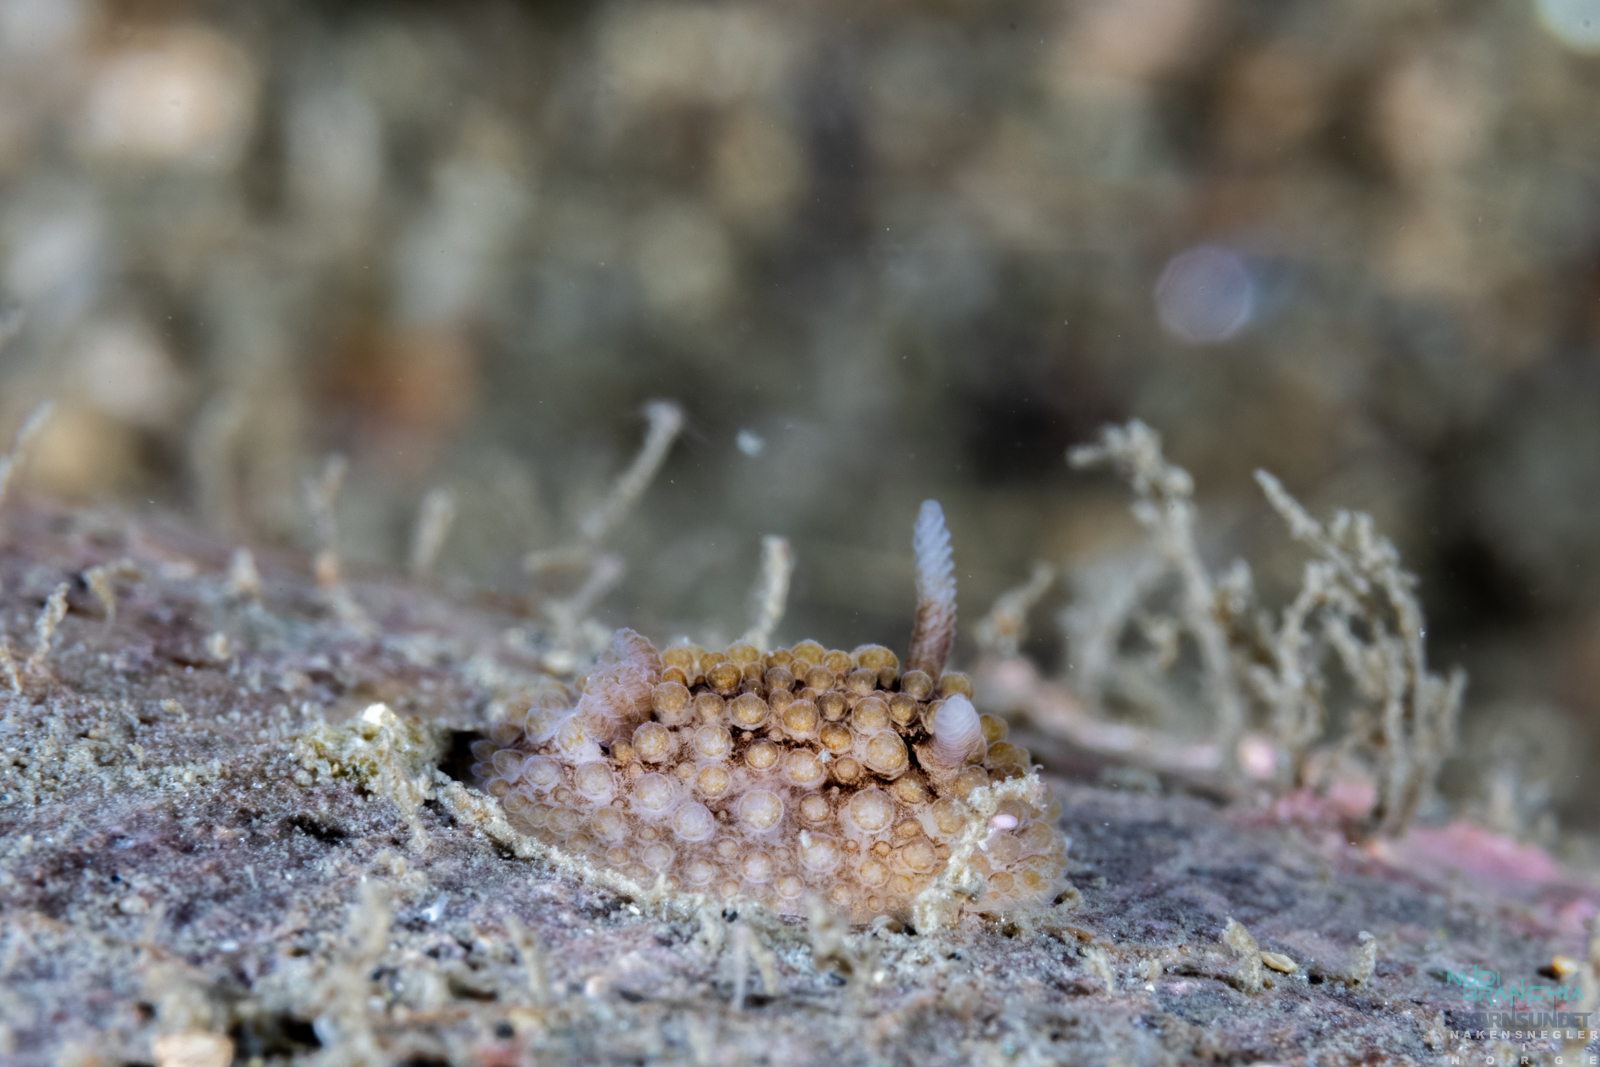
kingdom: Animalia
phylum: Mollusca
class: Gastropoda
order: Nudibranchia
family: Onchidorididae
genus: Onchidoris
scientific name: Onchidoris bilamellata
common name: Barnacle-eating onchidoris
